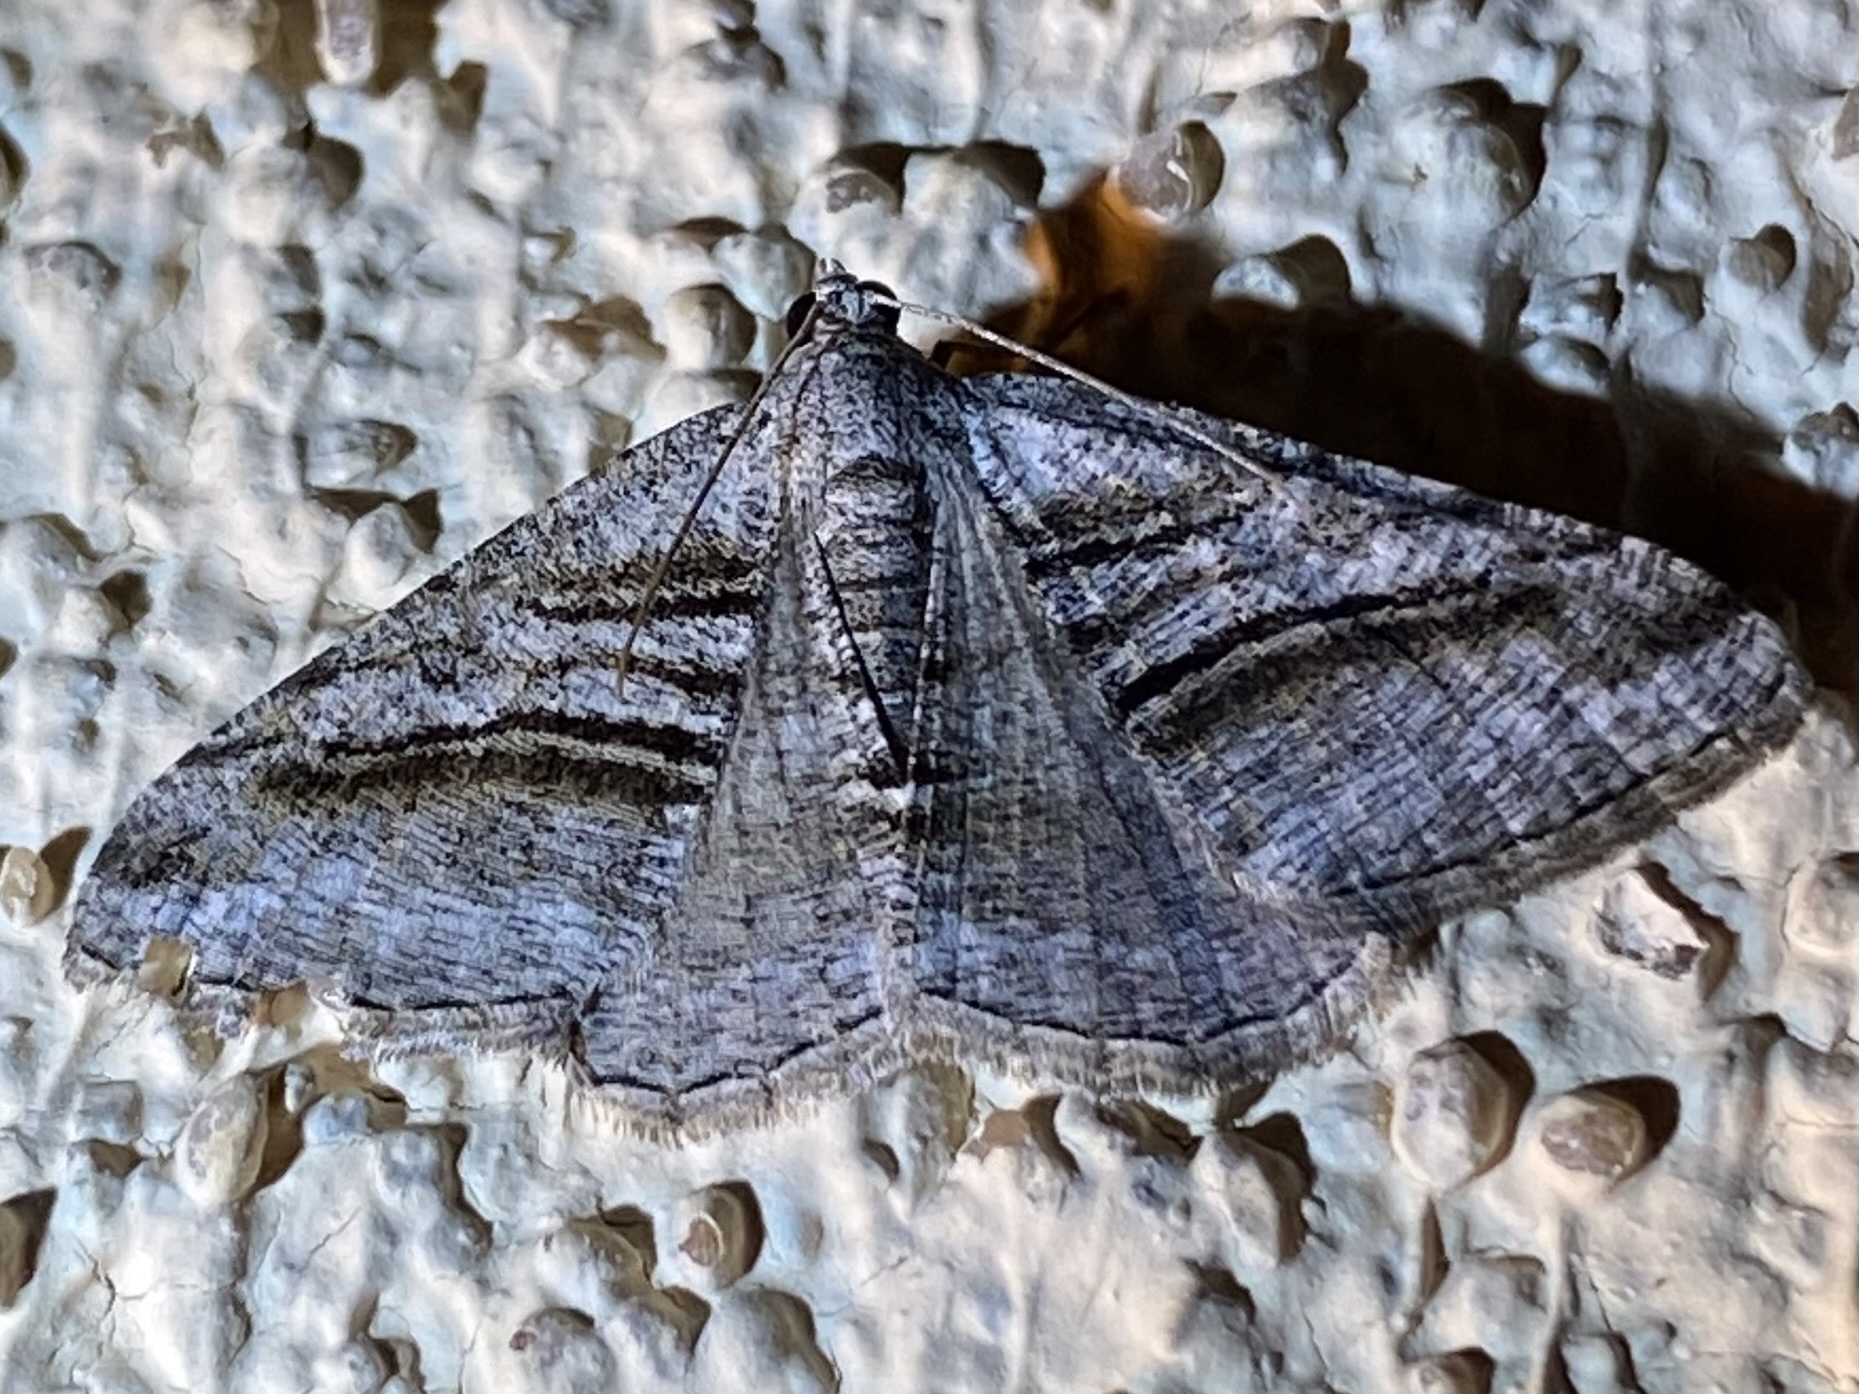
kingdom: Animalia
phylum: Arthropoda
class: Insecta
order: Lepidoptera
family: Geometridae
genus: Digrammia
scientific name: Digrammia atrofasciata
